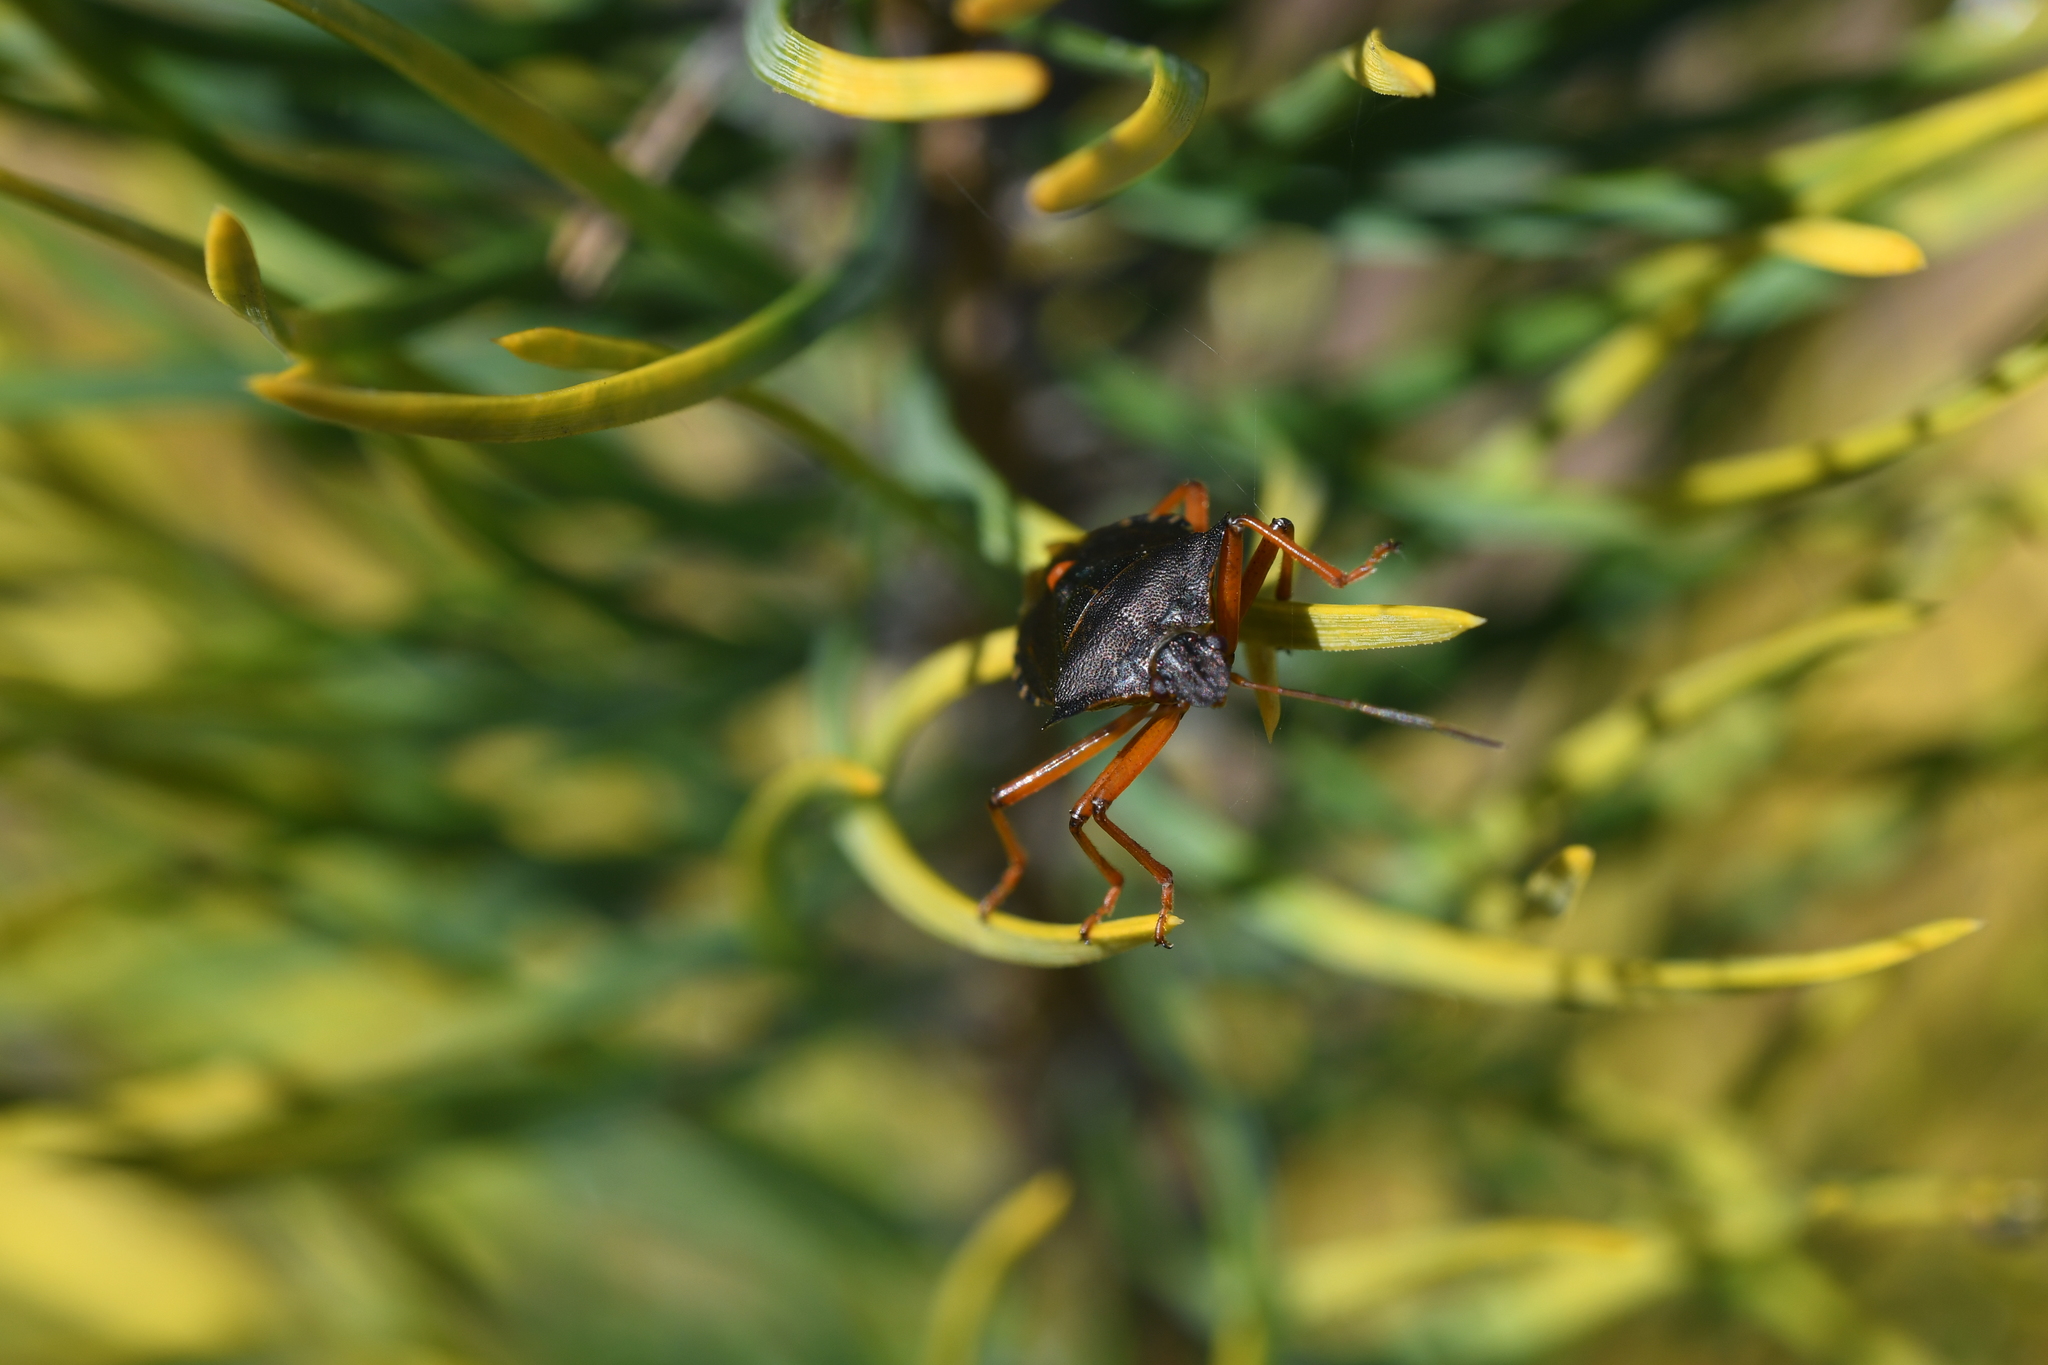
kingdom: Animalia
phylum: Arthropoda
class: Insecta
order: Hemiptera
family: Pentatomidae
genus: Pentatoma
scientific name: Pentatoma rufipes
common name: Forest bug
